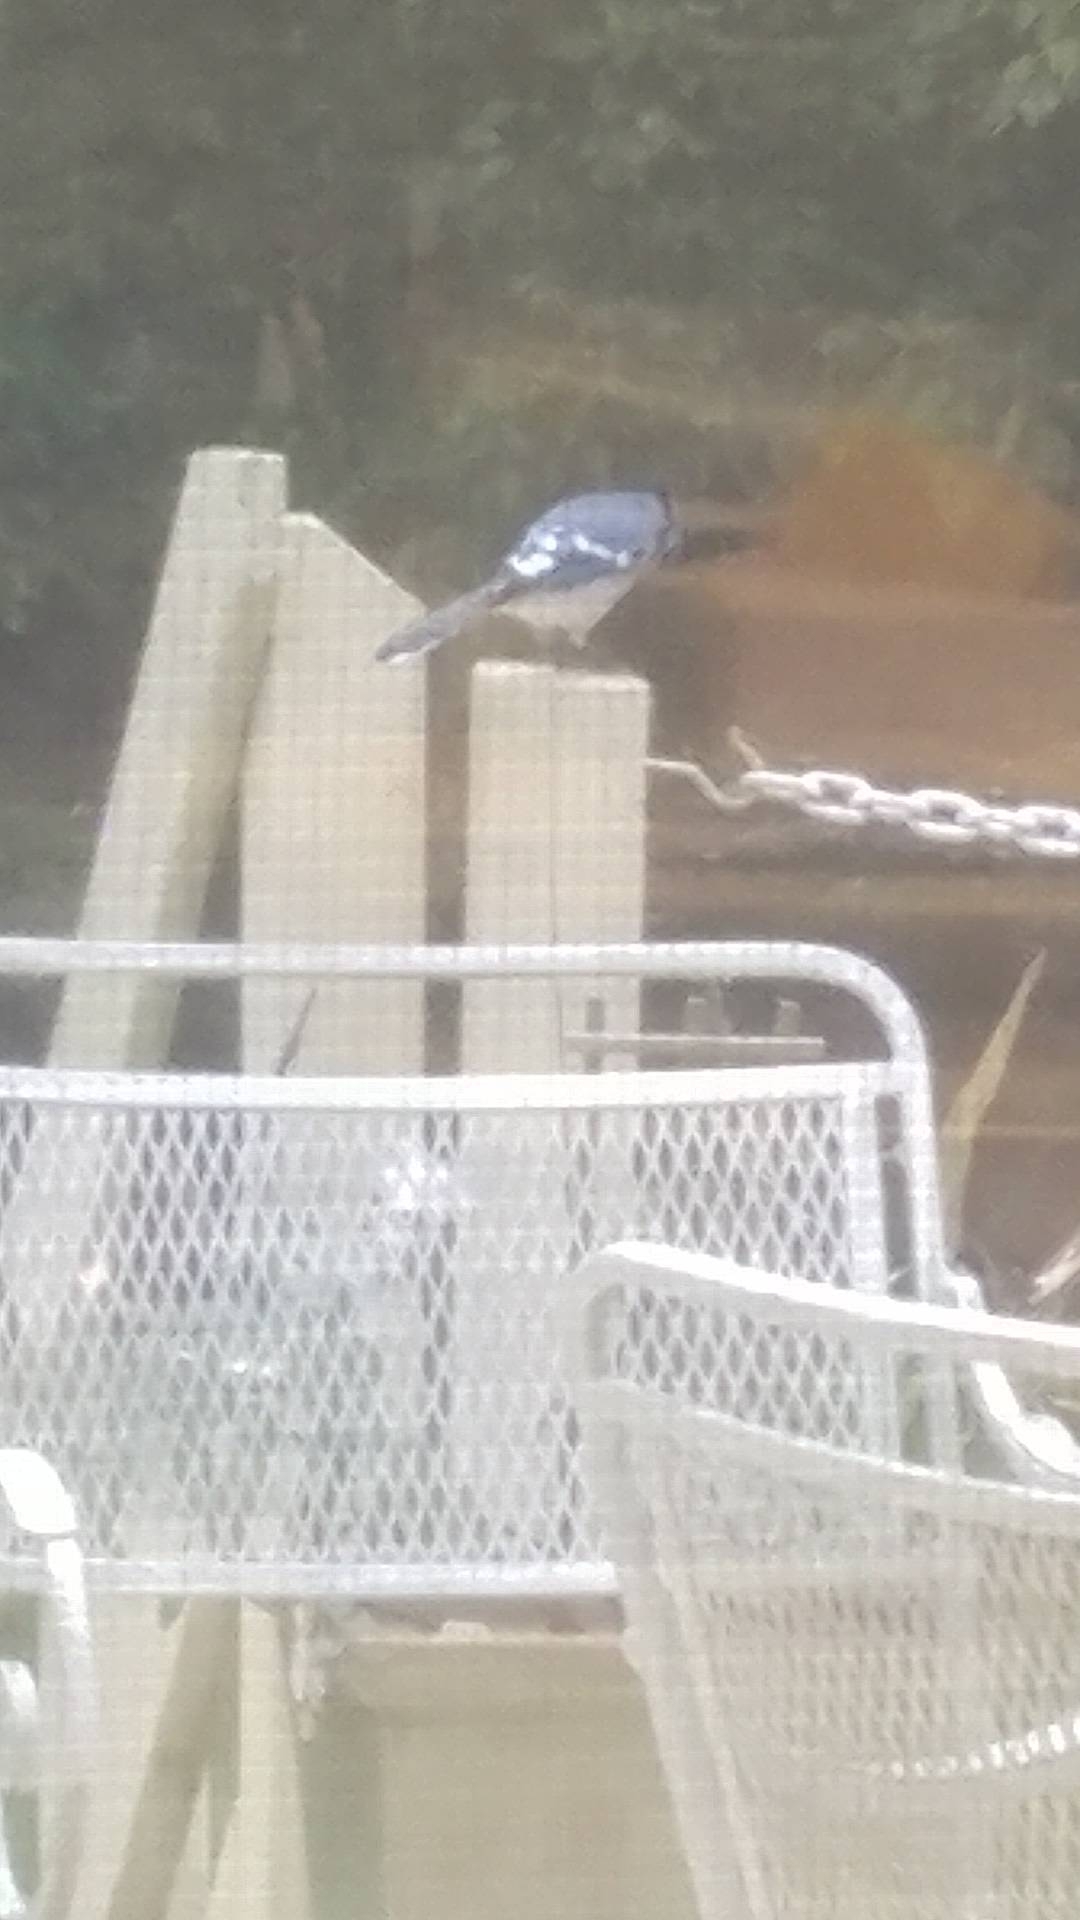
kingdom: Animalia
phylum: Chordata
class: Aves
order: Passeriformes
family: Corvidae
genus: Cyanocitta
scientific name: Cyanocitta cristata
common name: Blue jay
